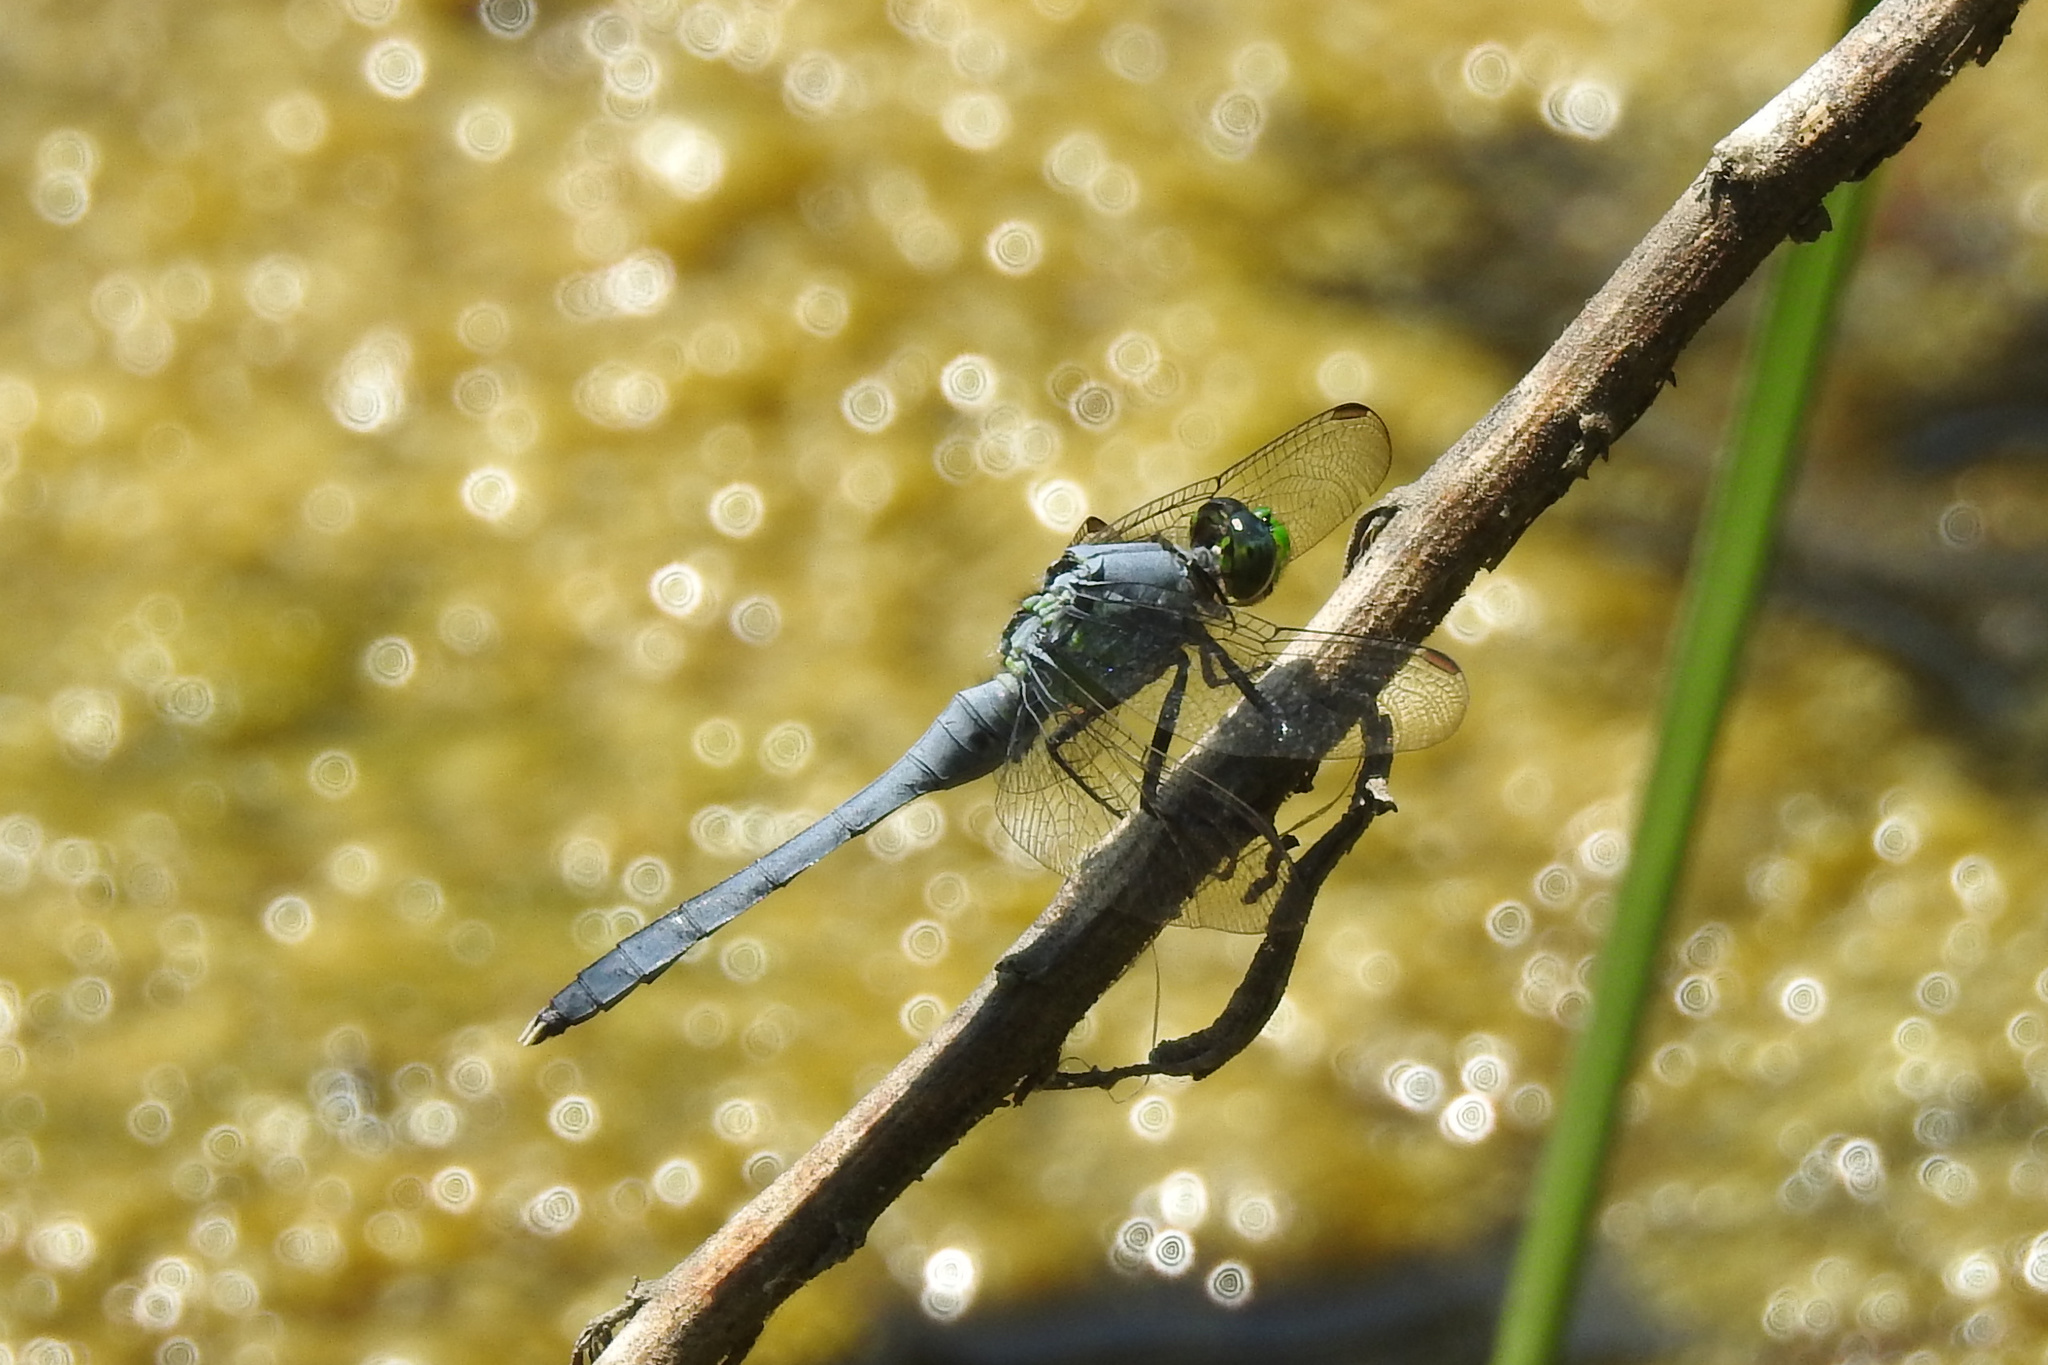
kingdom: Animalia
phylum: Arthropoda
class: Insecta
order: Odonata
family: Libellulidae
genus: Erythemis
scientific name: Erythemis simplicicollis
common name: Eastern pondhawk
